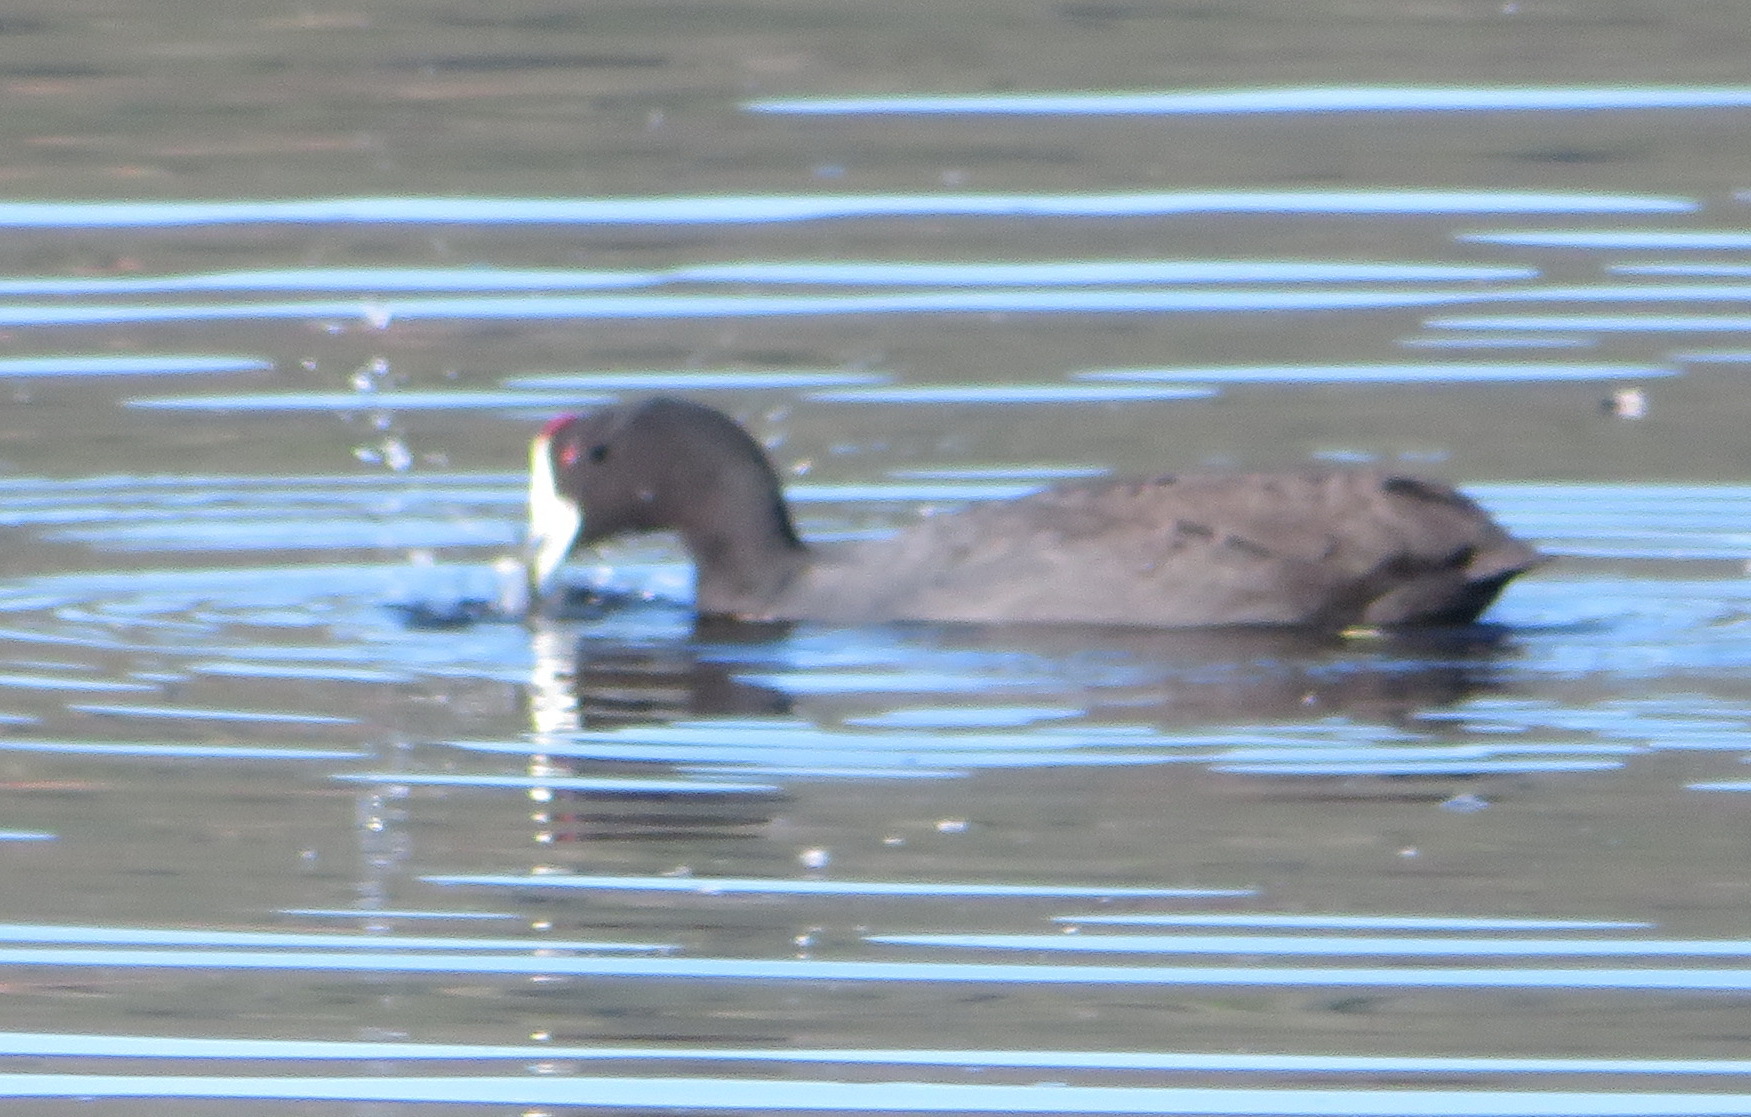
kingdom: Animalia
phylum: Chordata
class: Aves
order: Gruiformes
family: Rallidae
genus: Fulica
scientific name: Fulica cristata
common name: Red-knobbed coot
